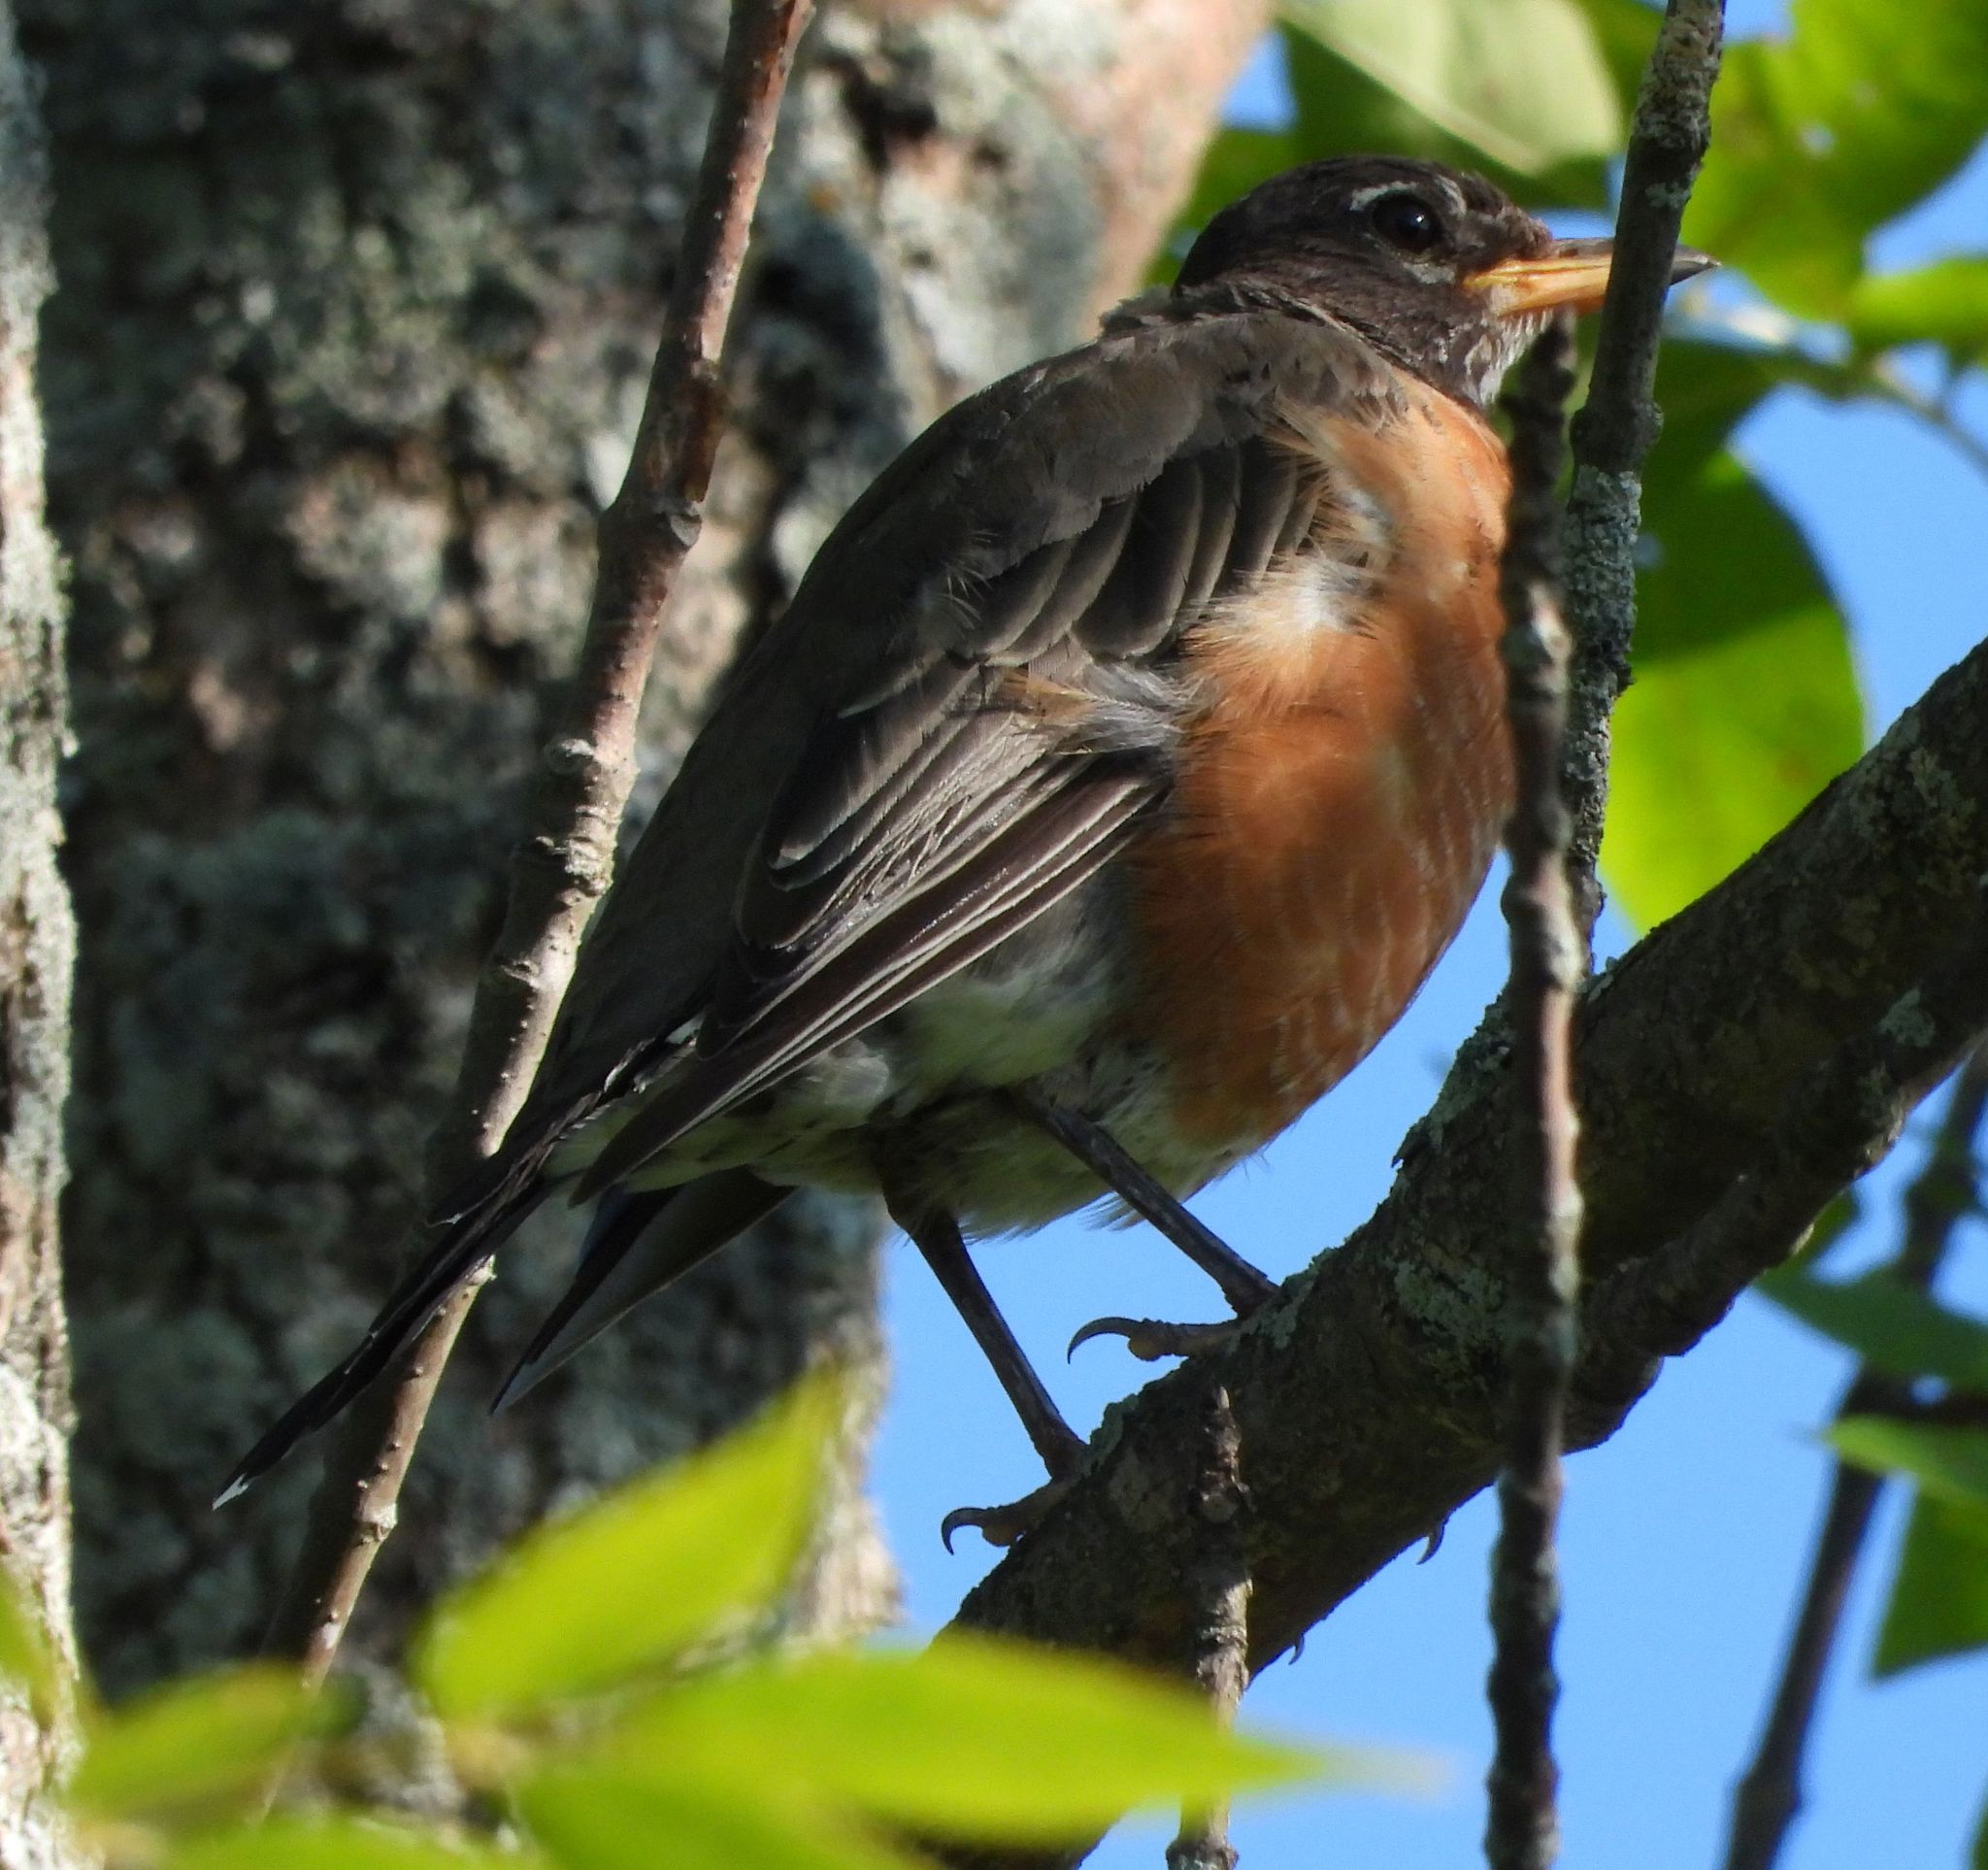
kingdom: Animalia
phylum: Chordata
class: Aves
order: Passeriformes
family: Turdidae
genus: Turdus
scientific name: Turdus migratorius
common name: American robin
